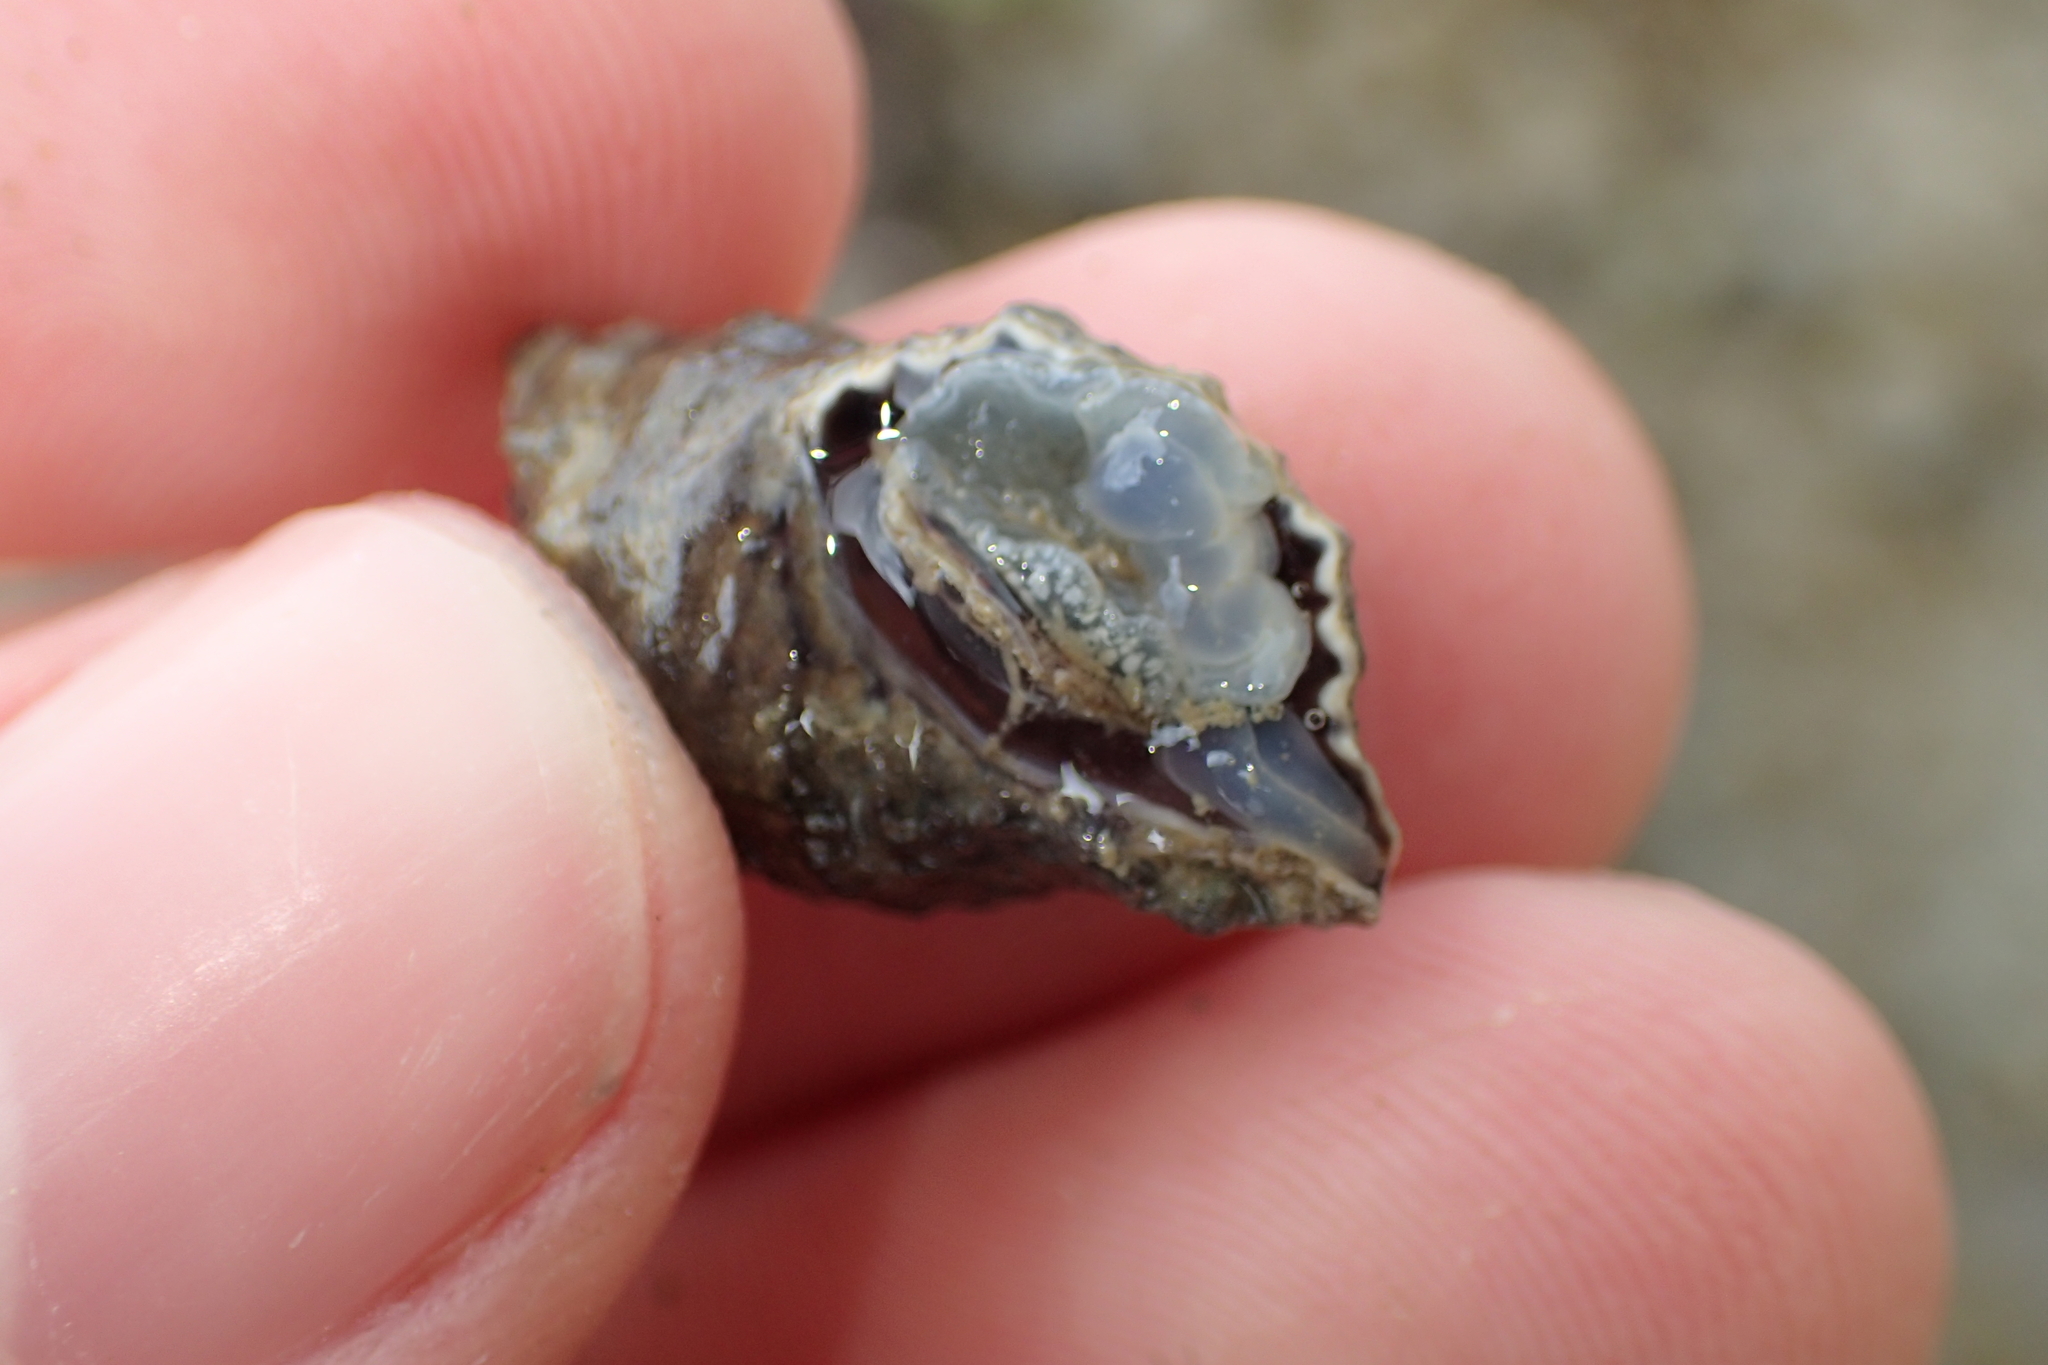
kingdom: Animalia
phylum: Mollusca
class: Gastropoda
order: Neogastropoda
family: Muricidae
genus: Haustrum
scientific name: Haustrum
